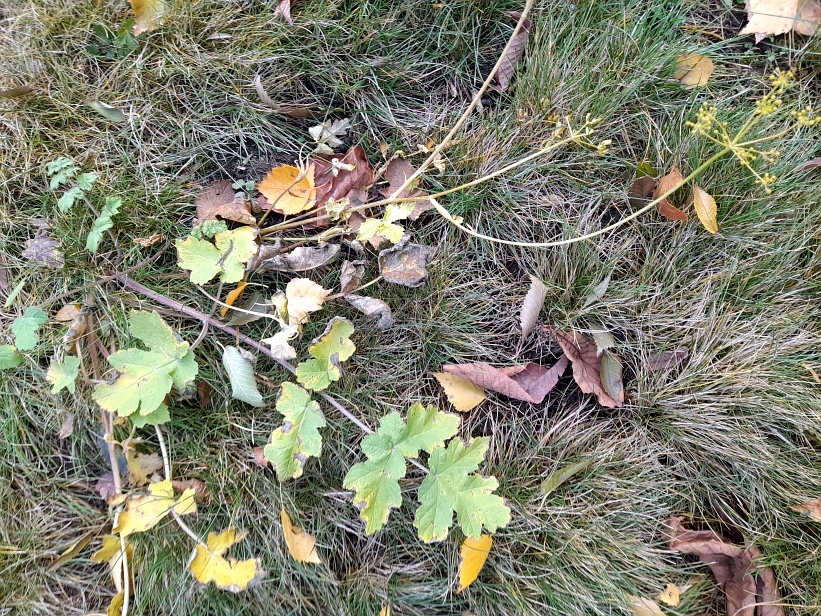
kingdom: Plantae
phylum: Tracheophyta
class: Magnoliopsida
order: Apiales
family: Apiaceae
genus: Heracleum
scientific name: Heracleum sphondylium
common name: Hogweed
